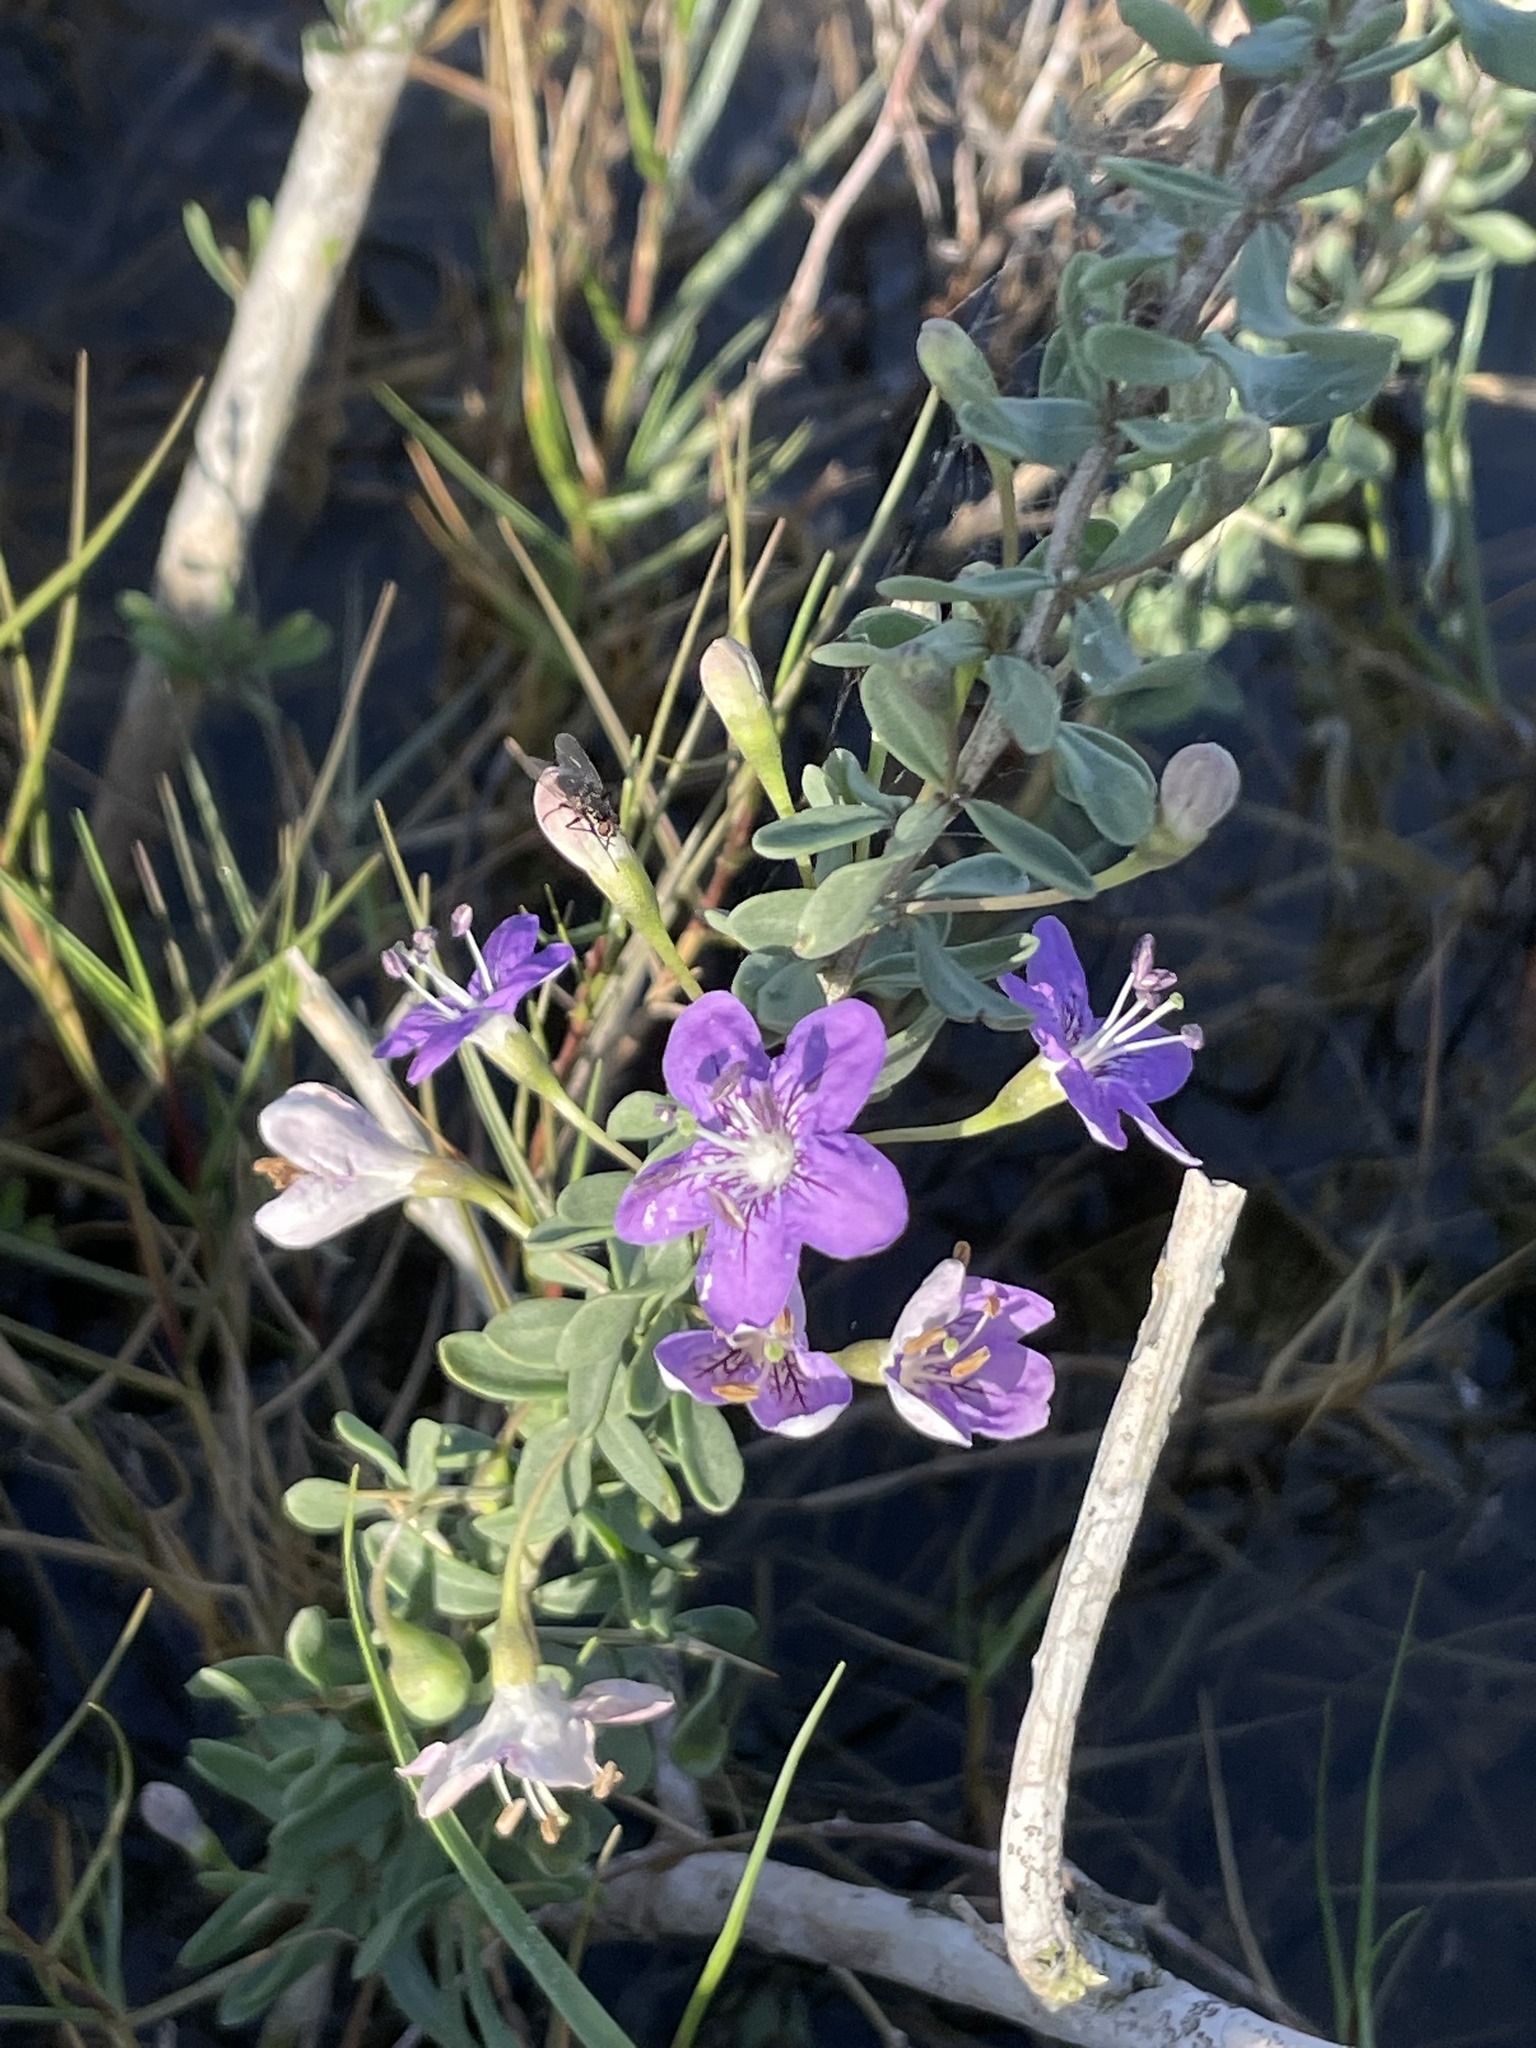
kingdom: Plantae
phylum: Tracheophyta
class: Magnoliopsida
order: Solanales
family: Solanaceae
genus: Lycium
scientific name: Lycium carolinianum
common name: Christmasberry
